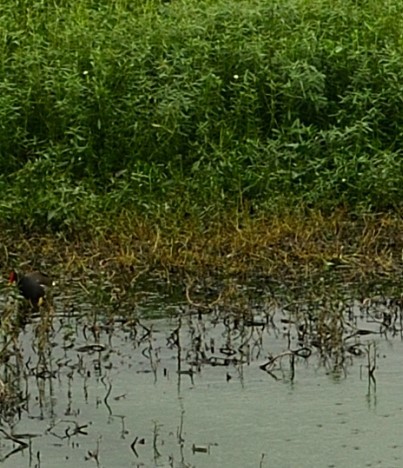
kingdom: Animalia
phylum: Chordata
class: Aves
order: Gruiformes
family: Rallidae
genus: Gallinula
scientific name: Gallinula chloropus
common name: Common moorhen
